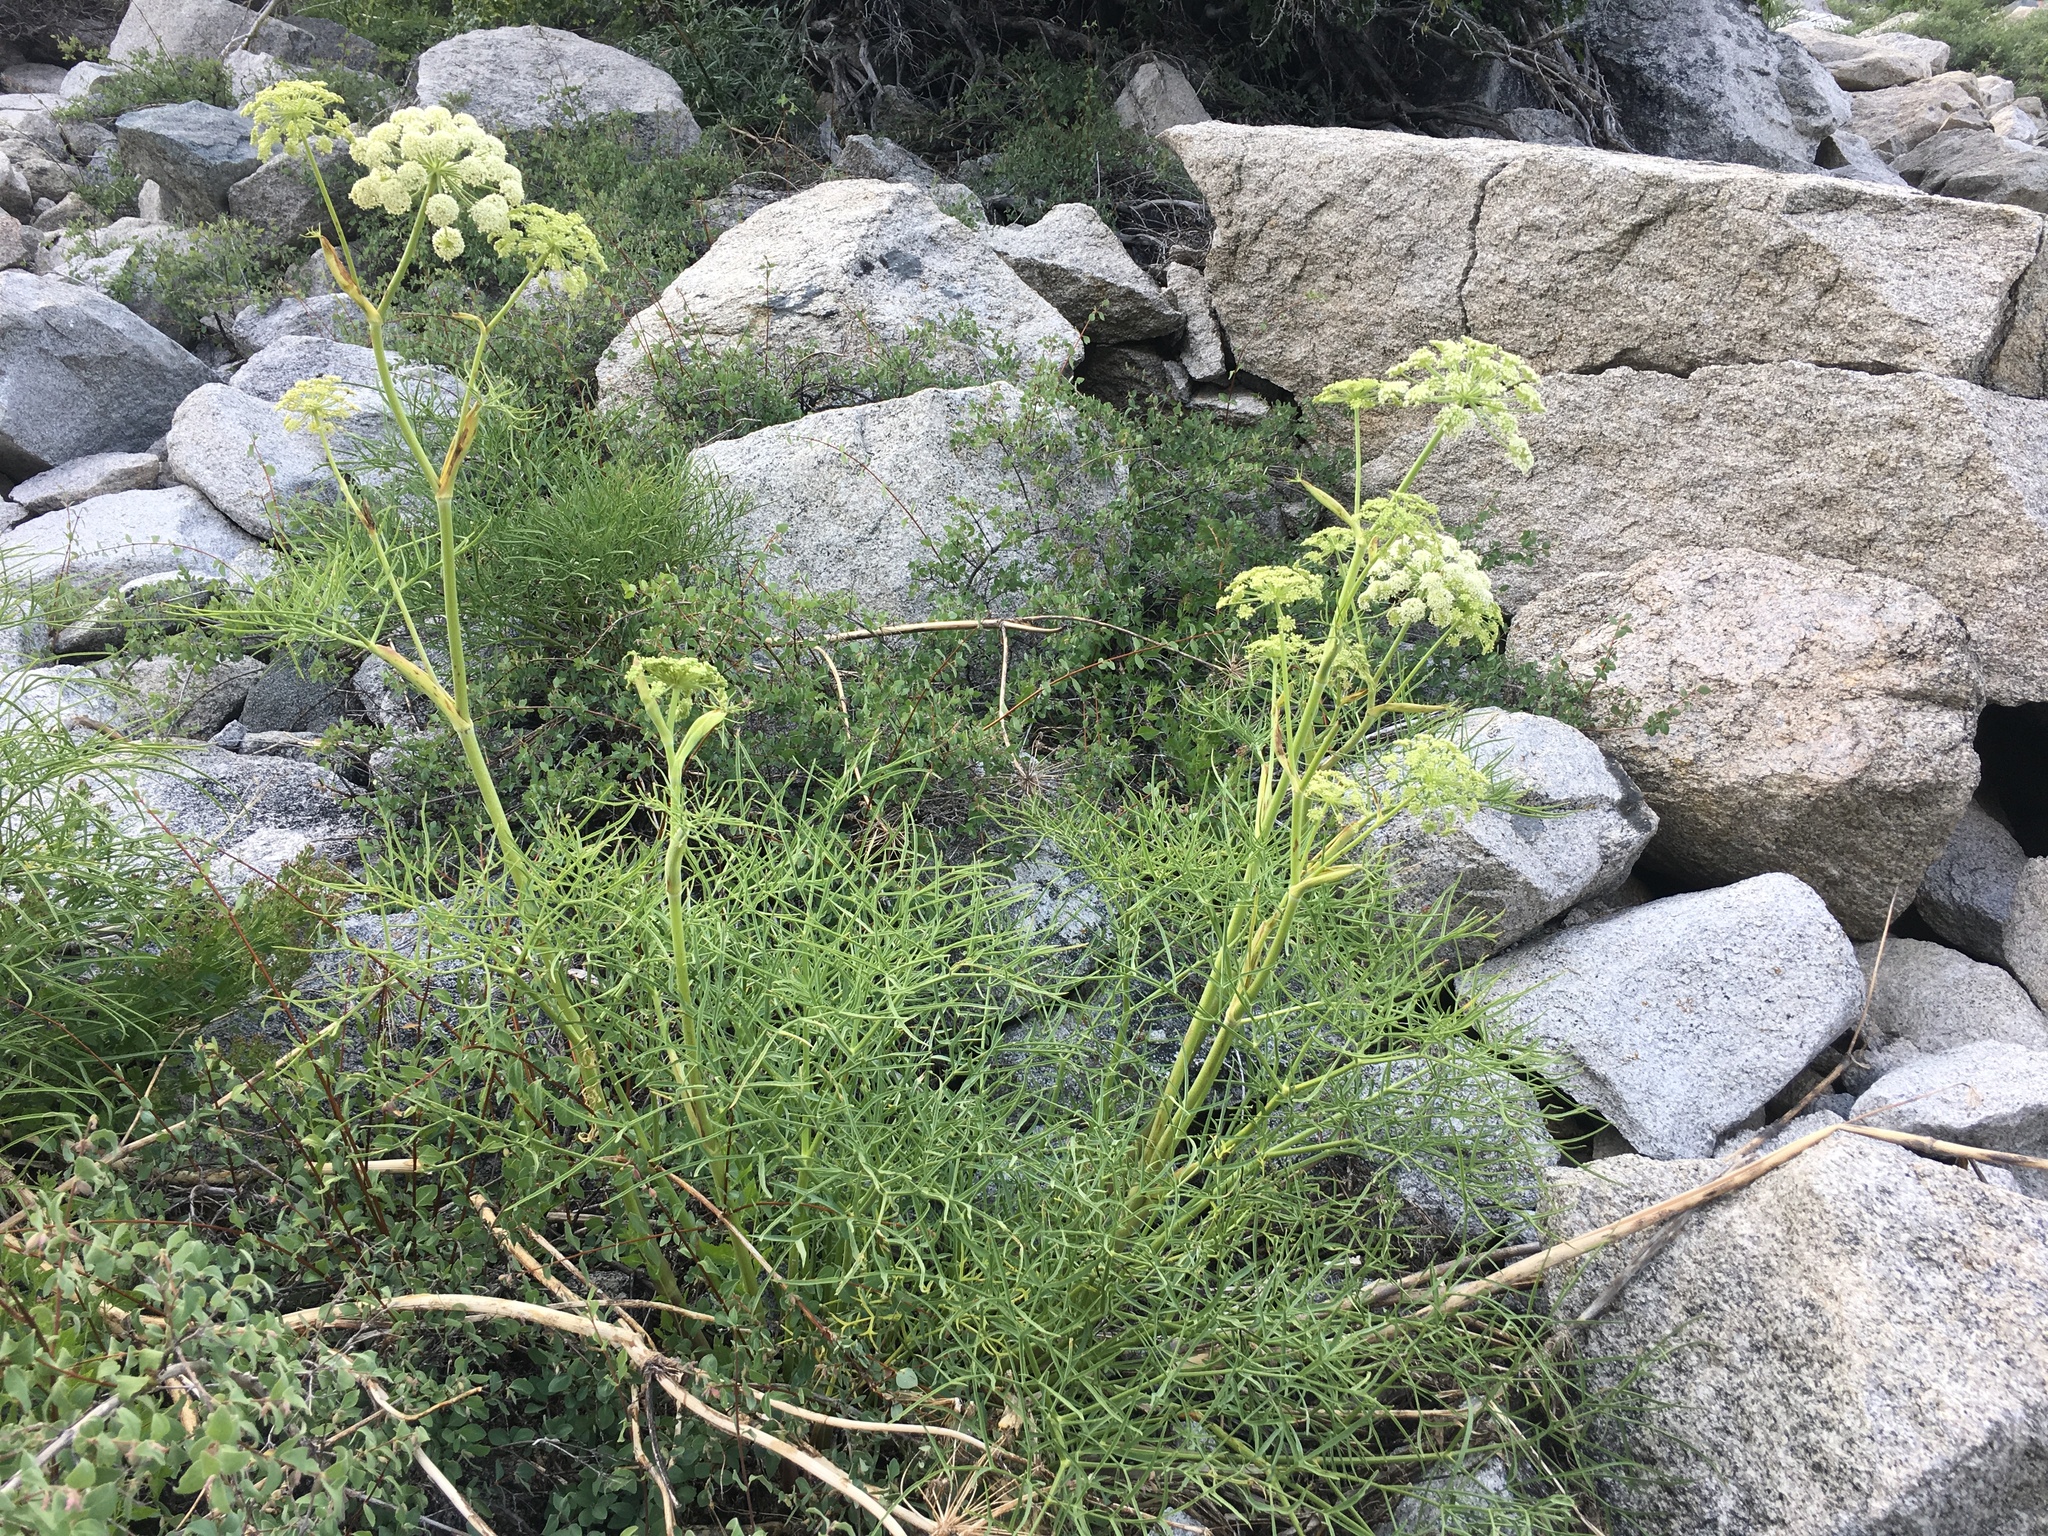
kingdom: Plantae
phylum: Tracheophyta
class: Magnoliopsida
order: Apiales
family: Apiaceae
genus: Angelica
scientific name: Angelica lineariloba
